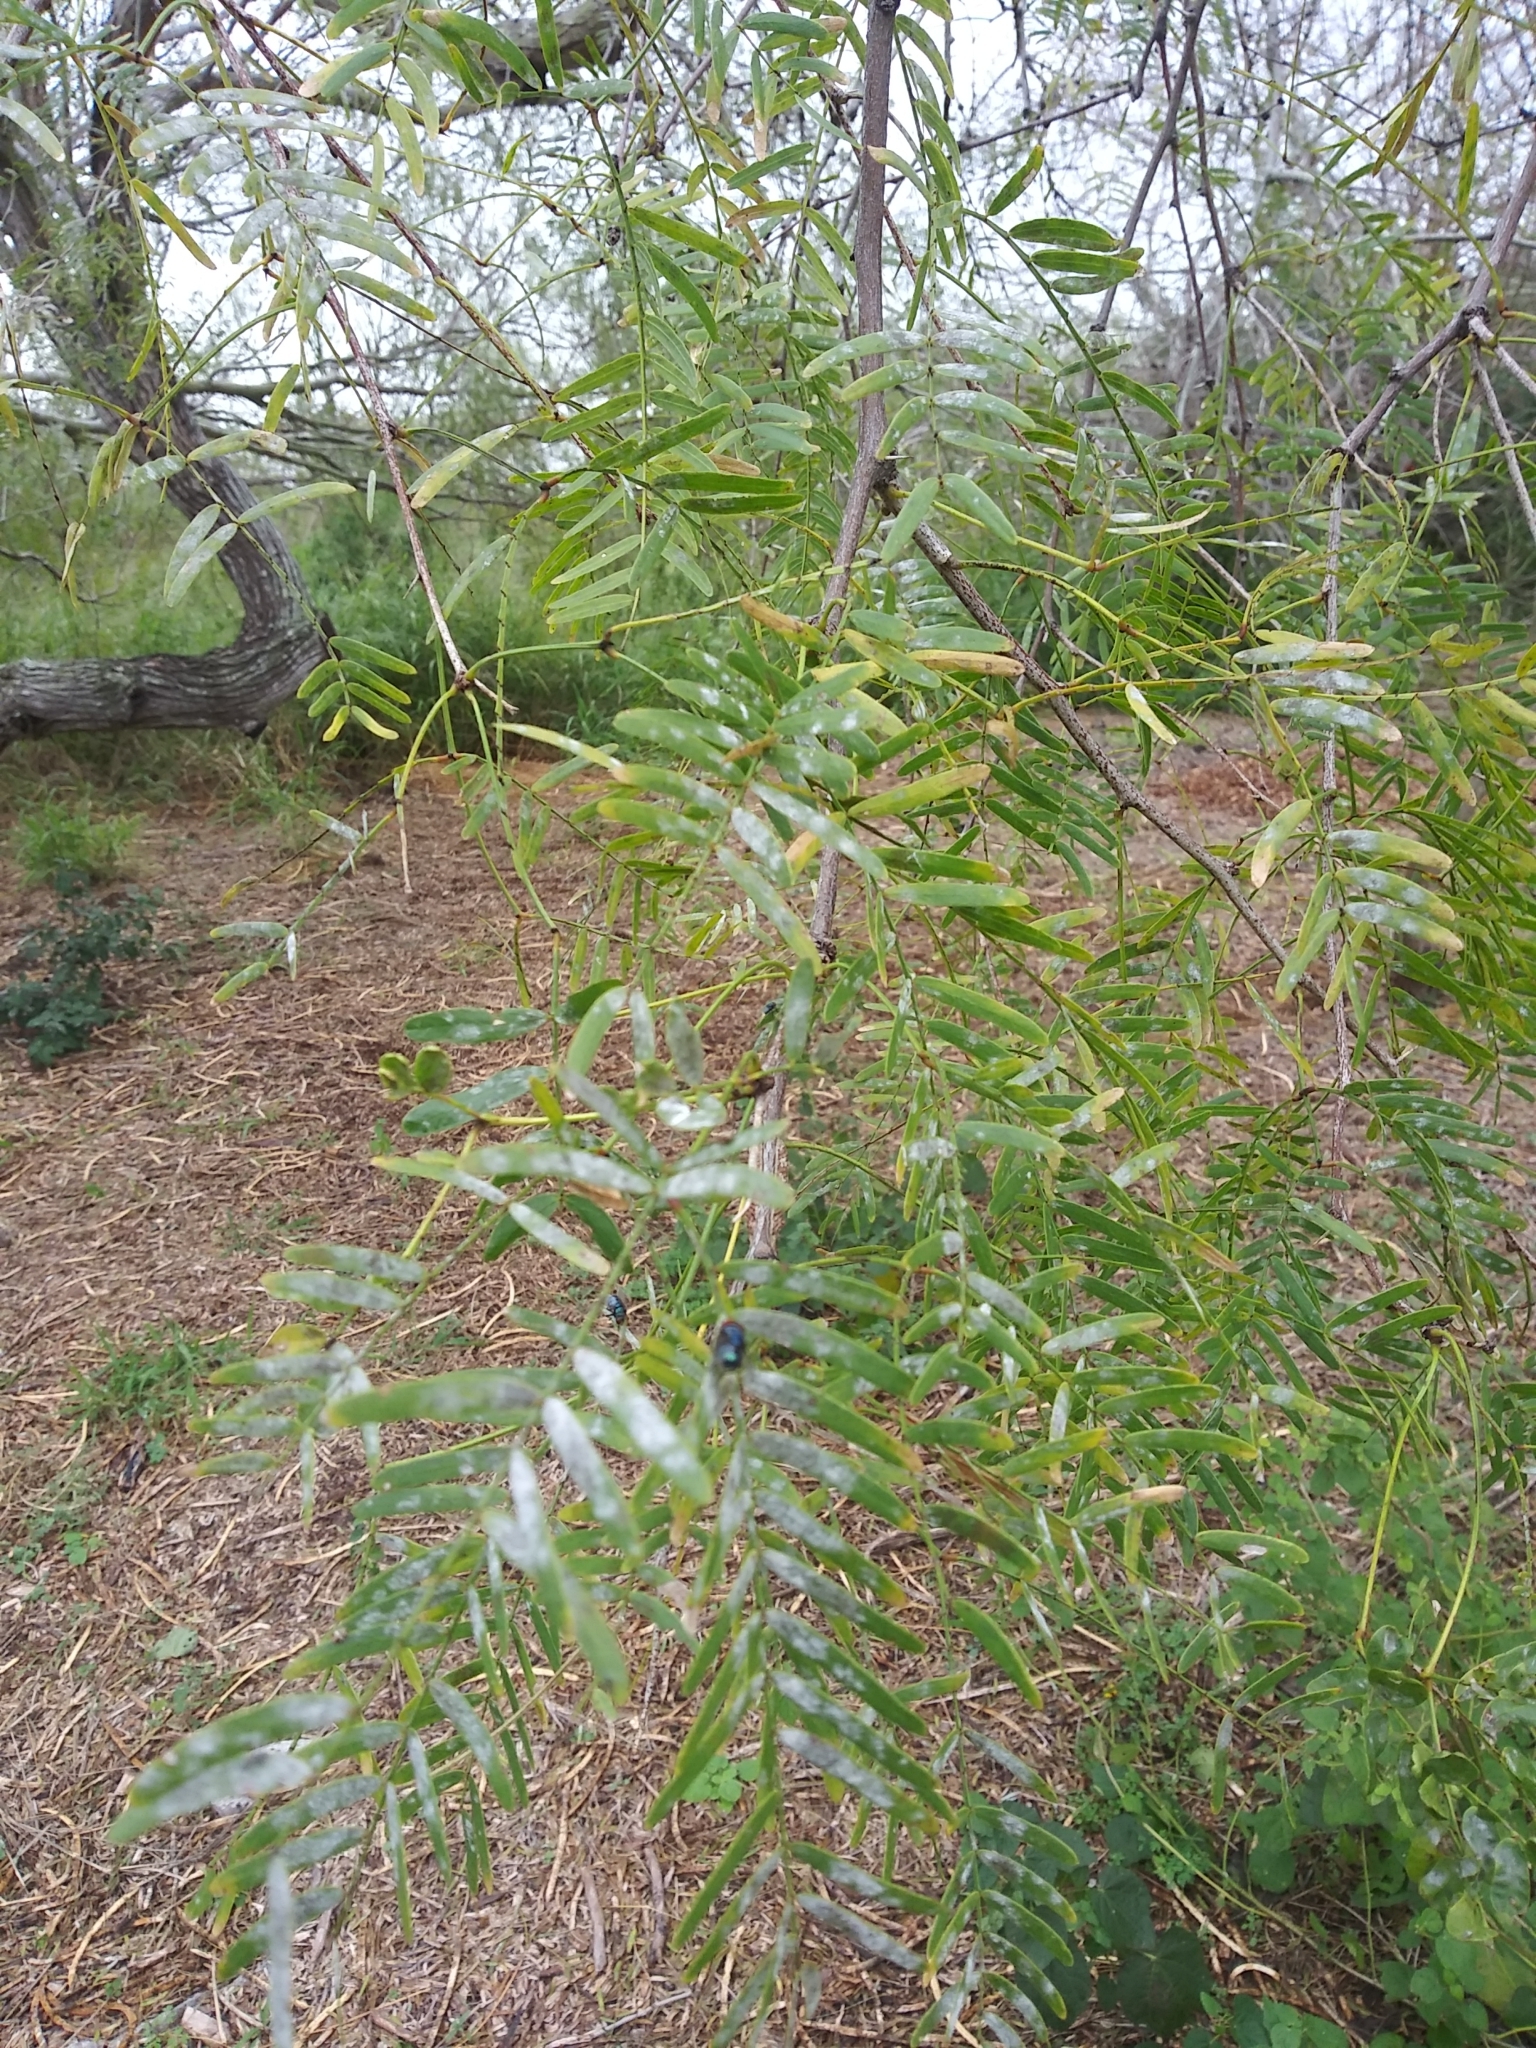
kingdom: Plantae
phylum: Tracheophyta
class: Magnoliopsida
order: Fabales
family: Fabaceae
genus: Prosopis
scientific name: Prosopis glandulosa
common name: Honey mesquite
